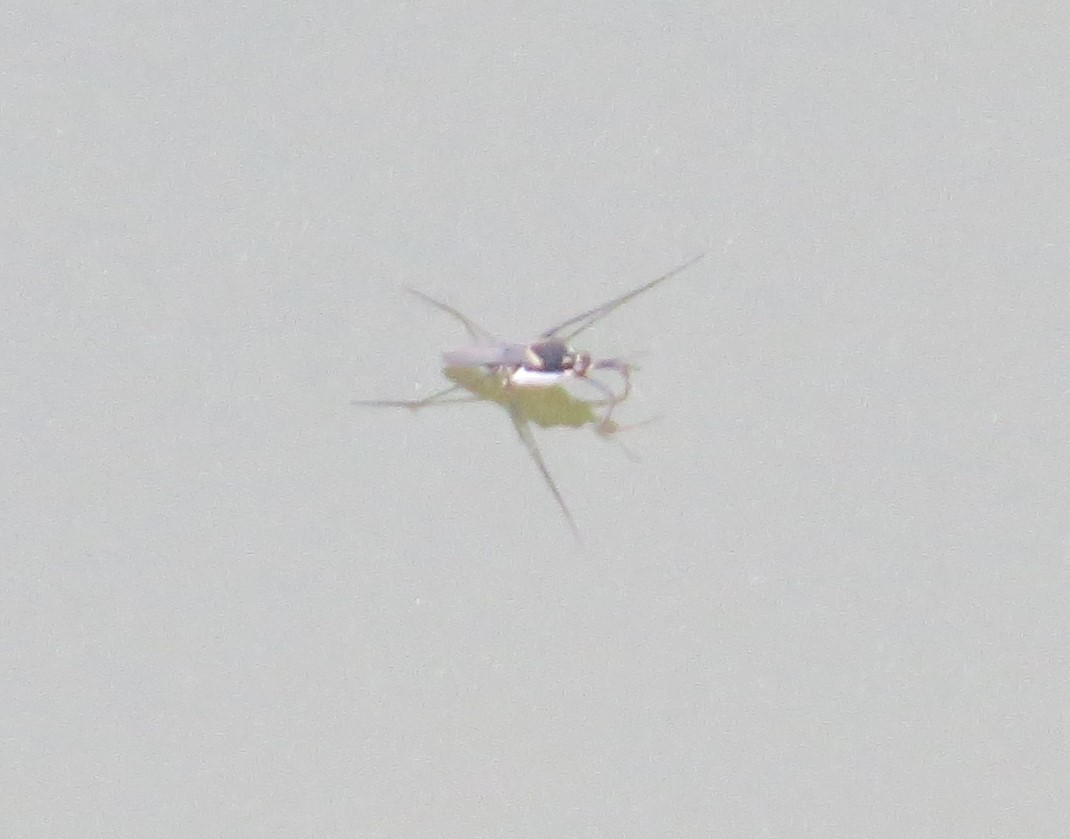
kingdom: Animalia
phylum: Arthropoda
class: Insecta
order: Hemiptera
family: Gerridae
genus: Trepobates
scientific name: Trepobates subnitidus
